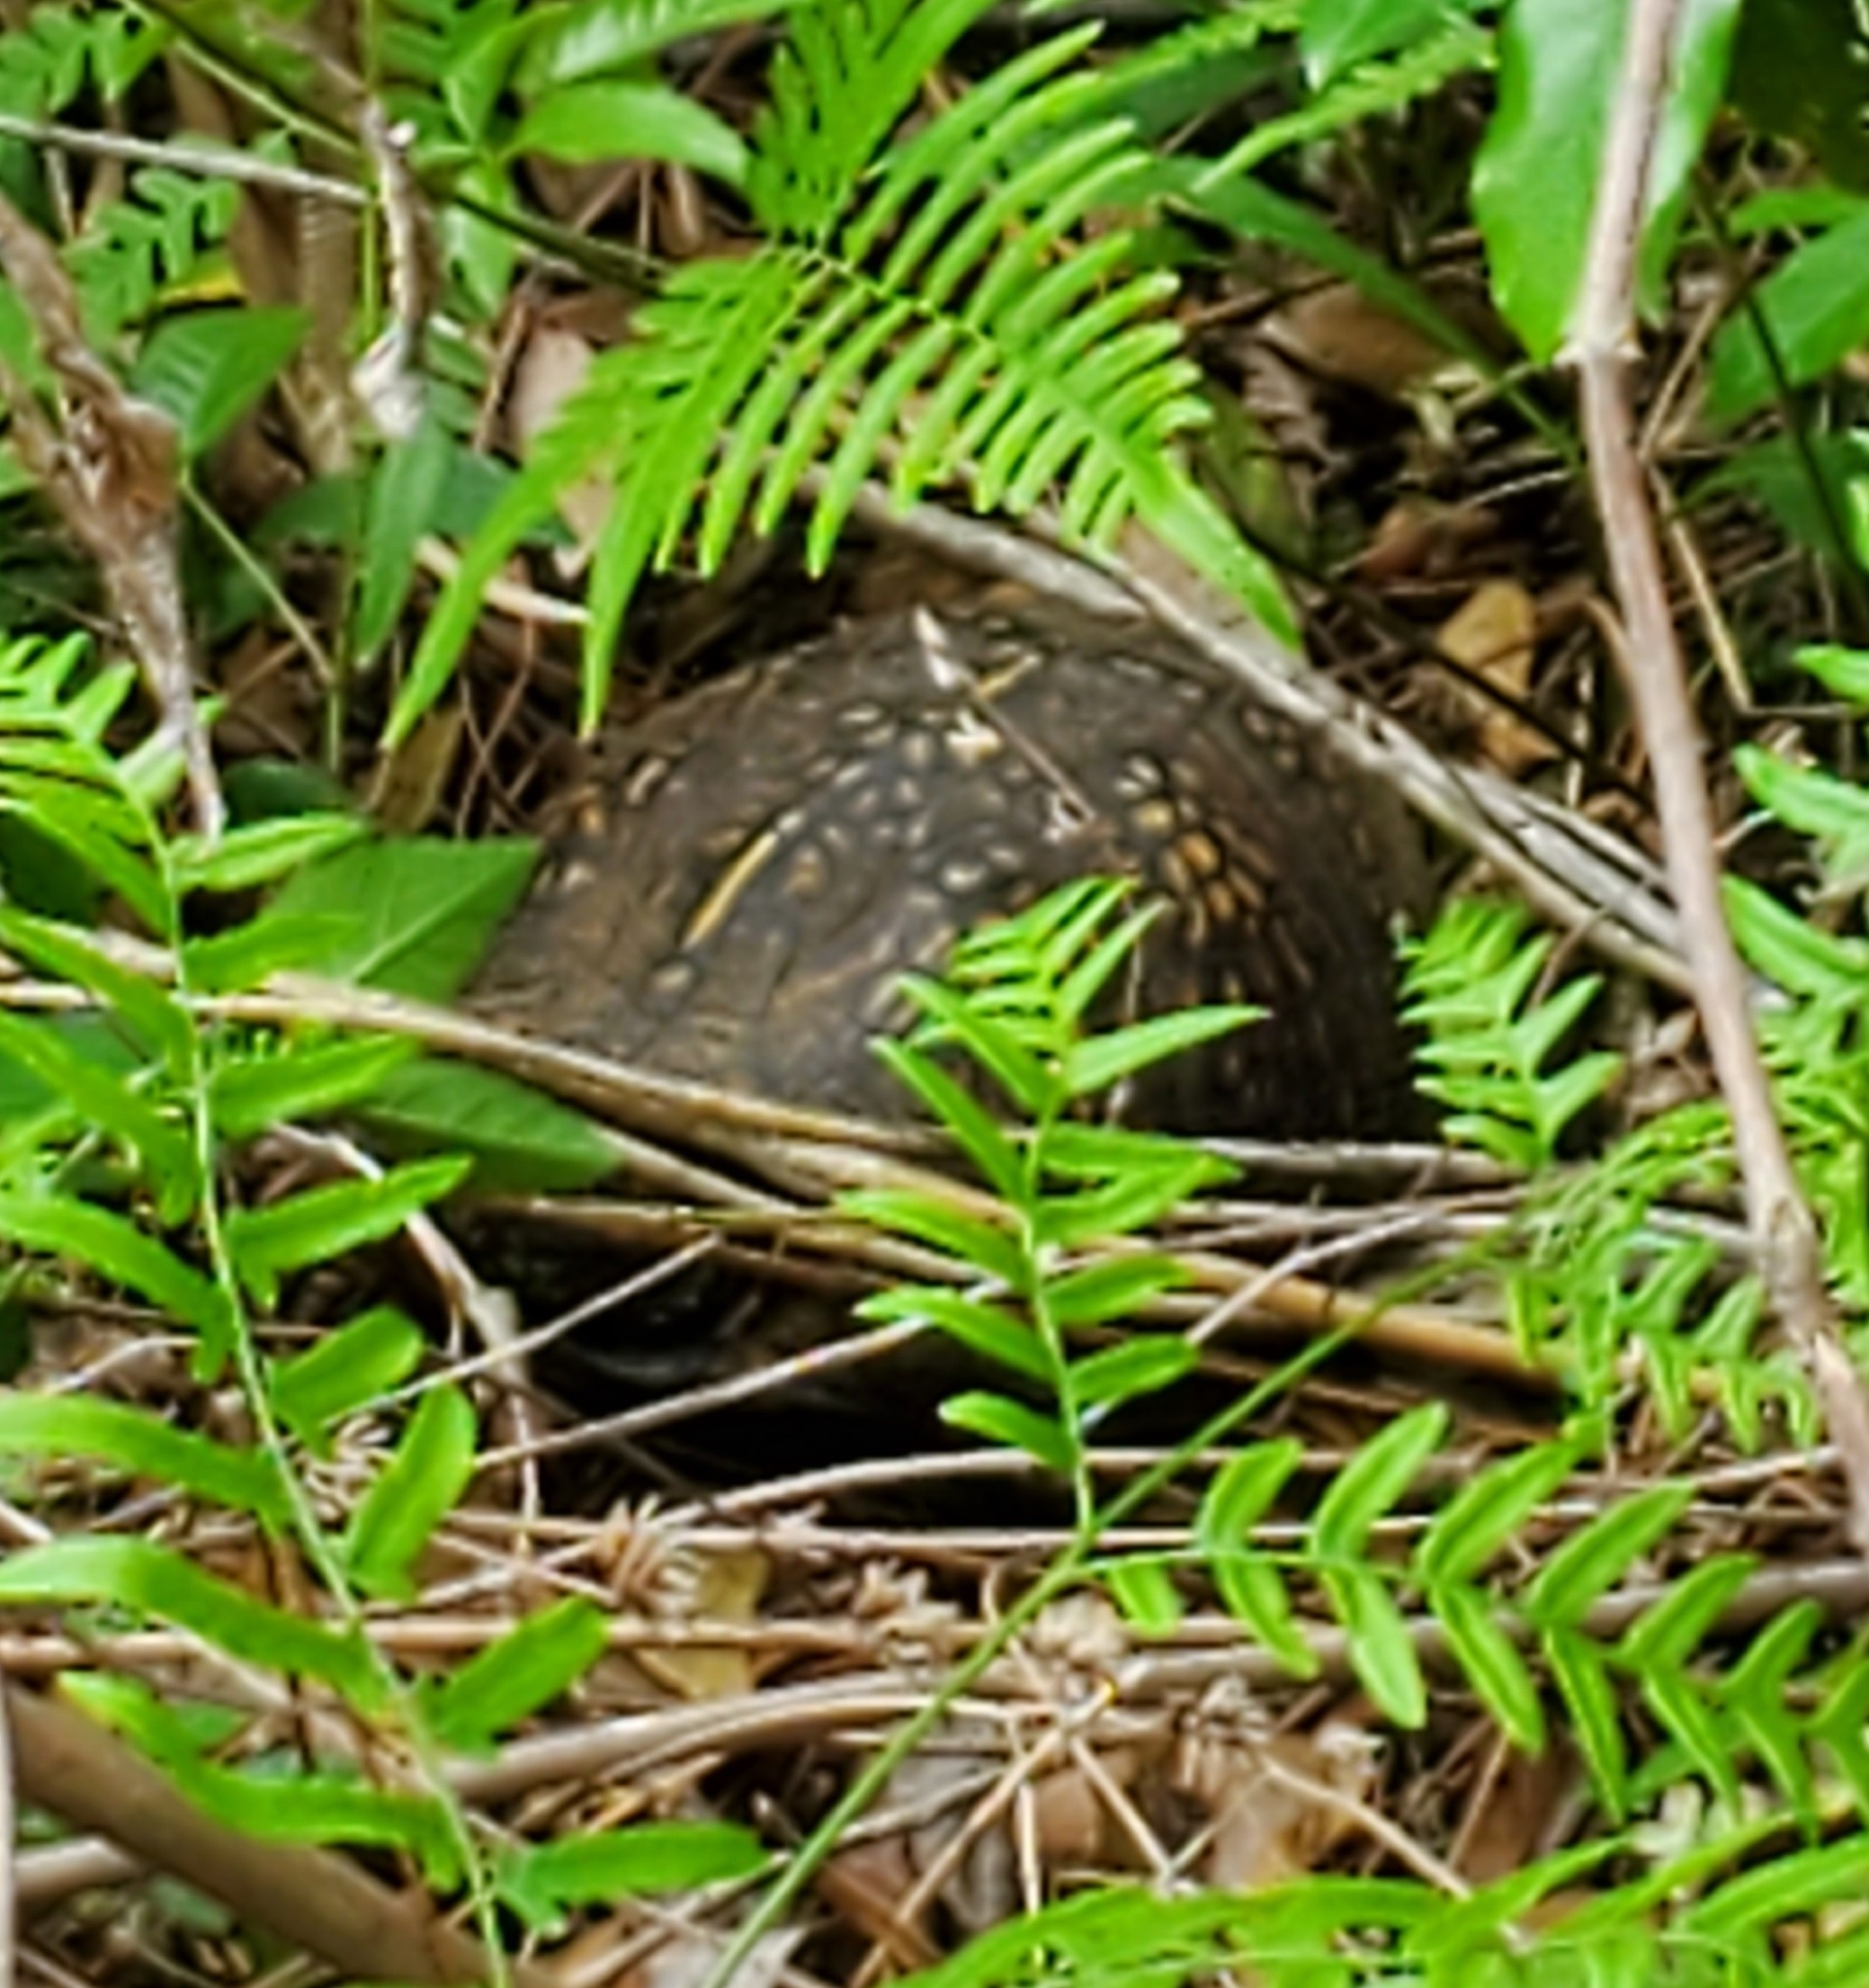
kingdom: Animalia
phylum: Chordata
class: Testudines
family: Emydidae
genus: Terrapene
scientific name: Terrapene carolina
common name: Common box turtle
